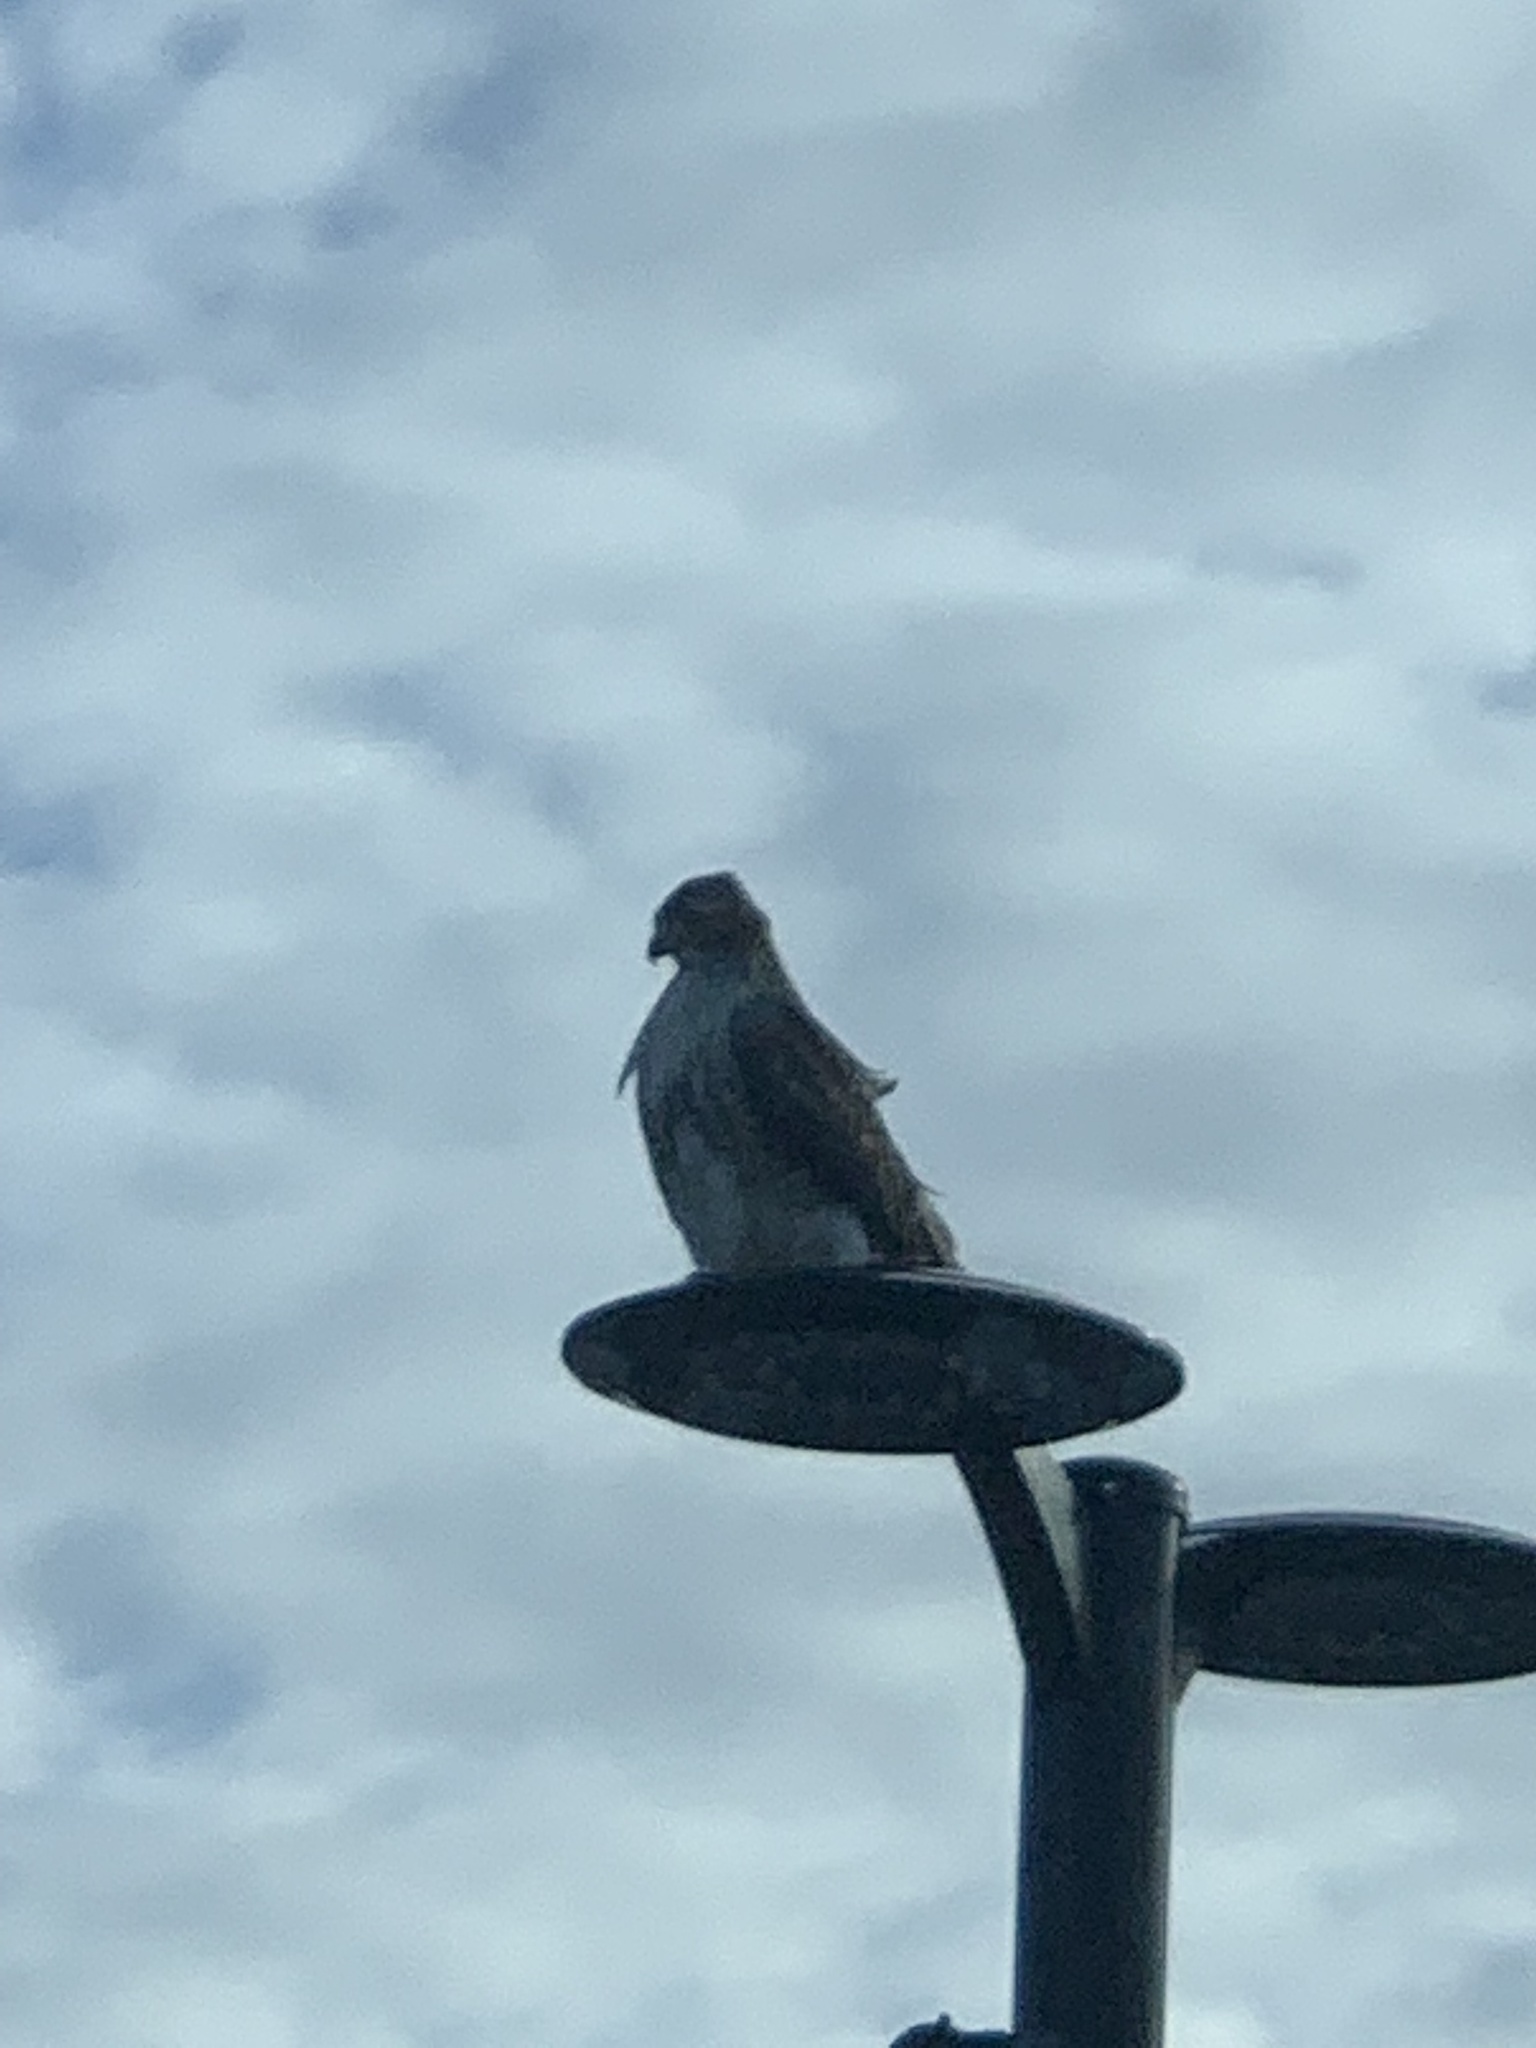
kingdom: Animalia
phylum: Chordata
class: Aves
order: Accipitriformes
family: Accipitridae
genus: Buteo
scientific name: Buteo jamaicensis
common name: Red-tailed hawk
